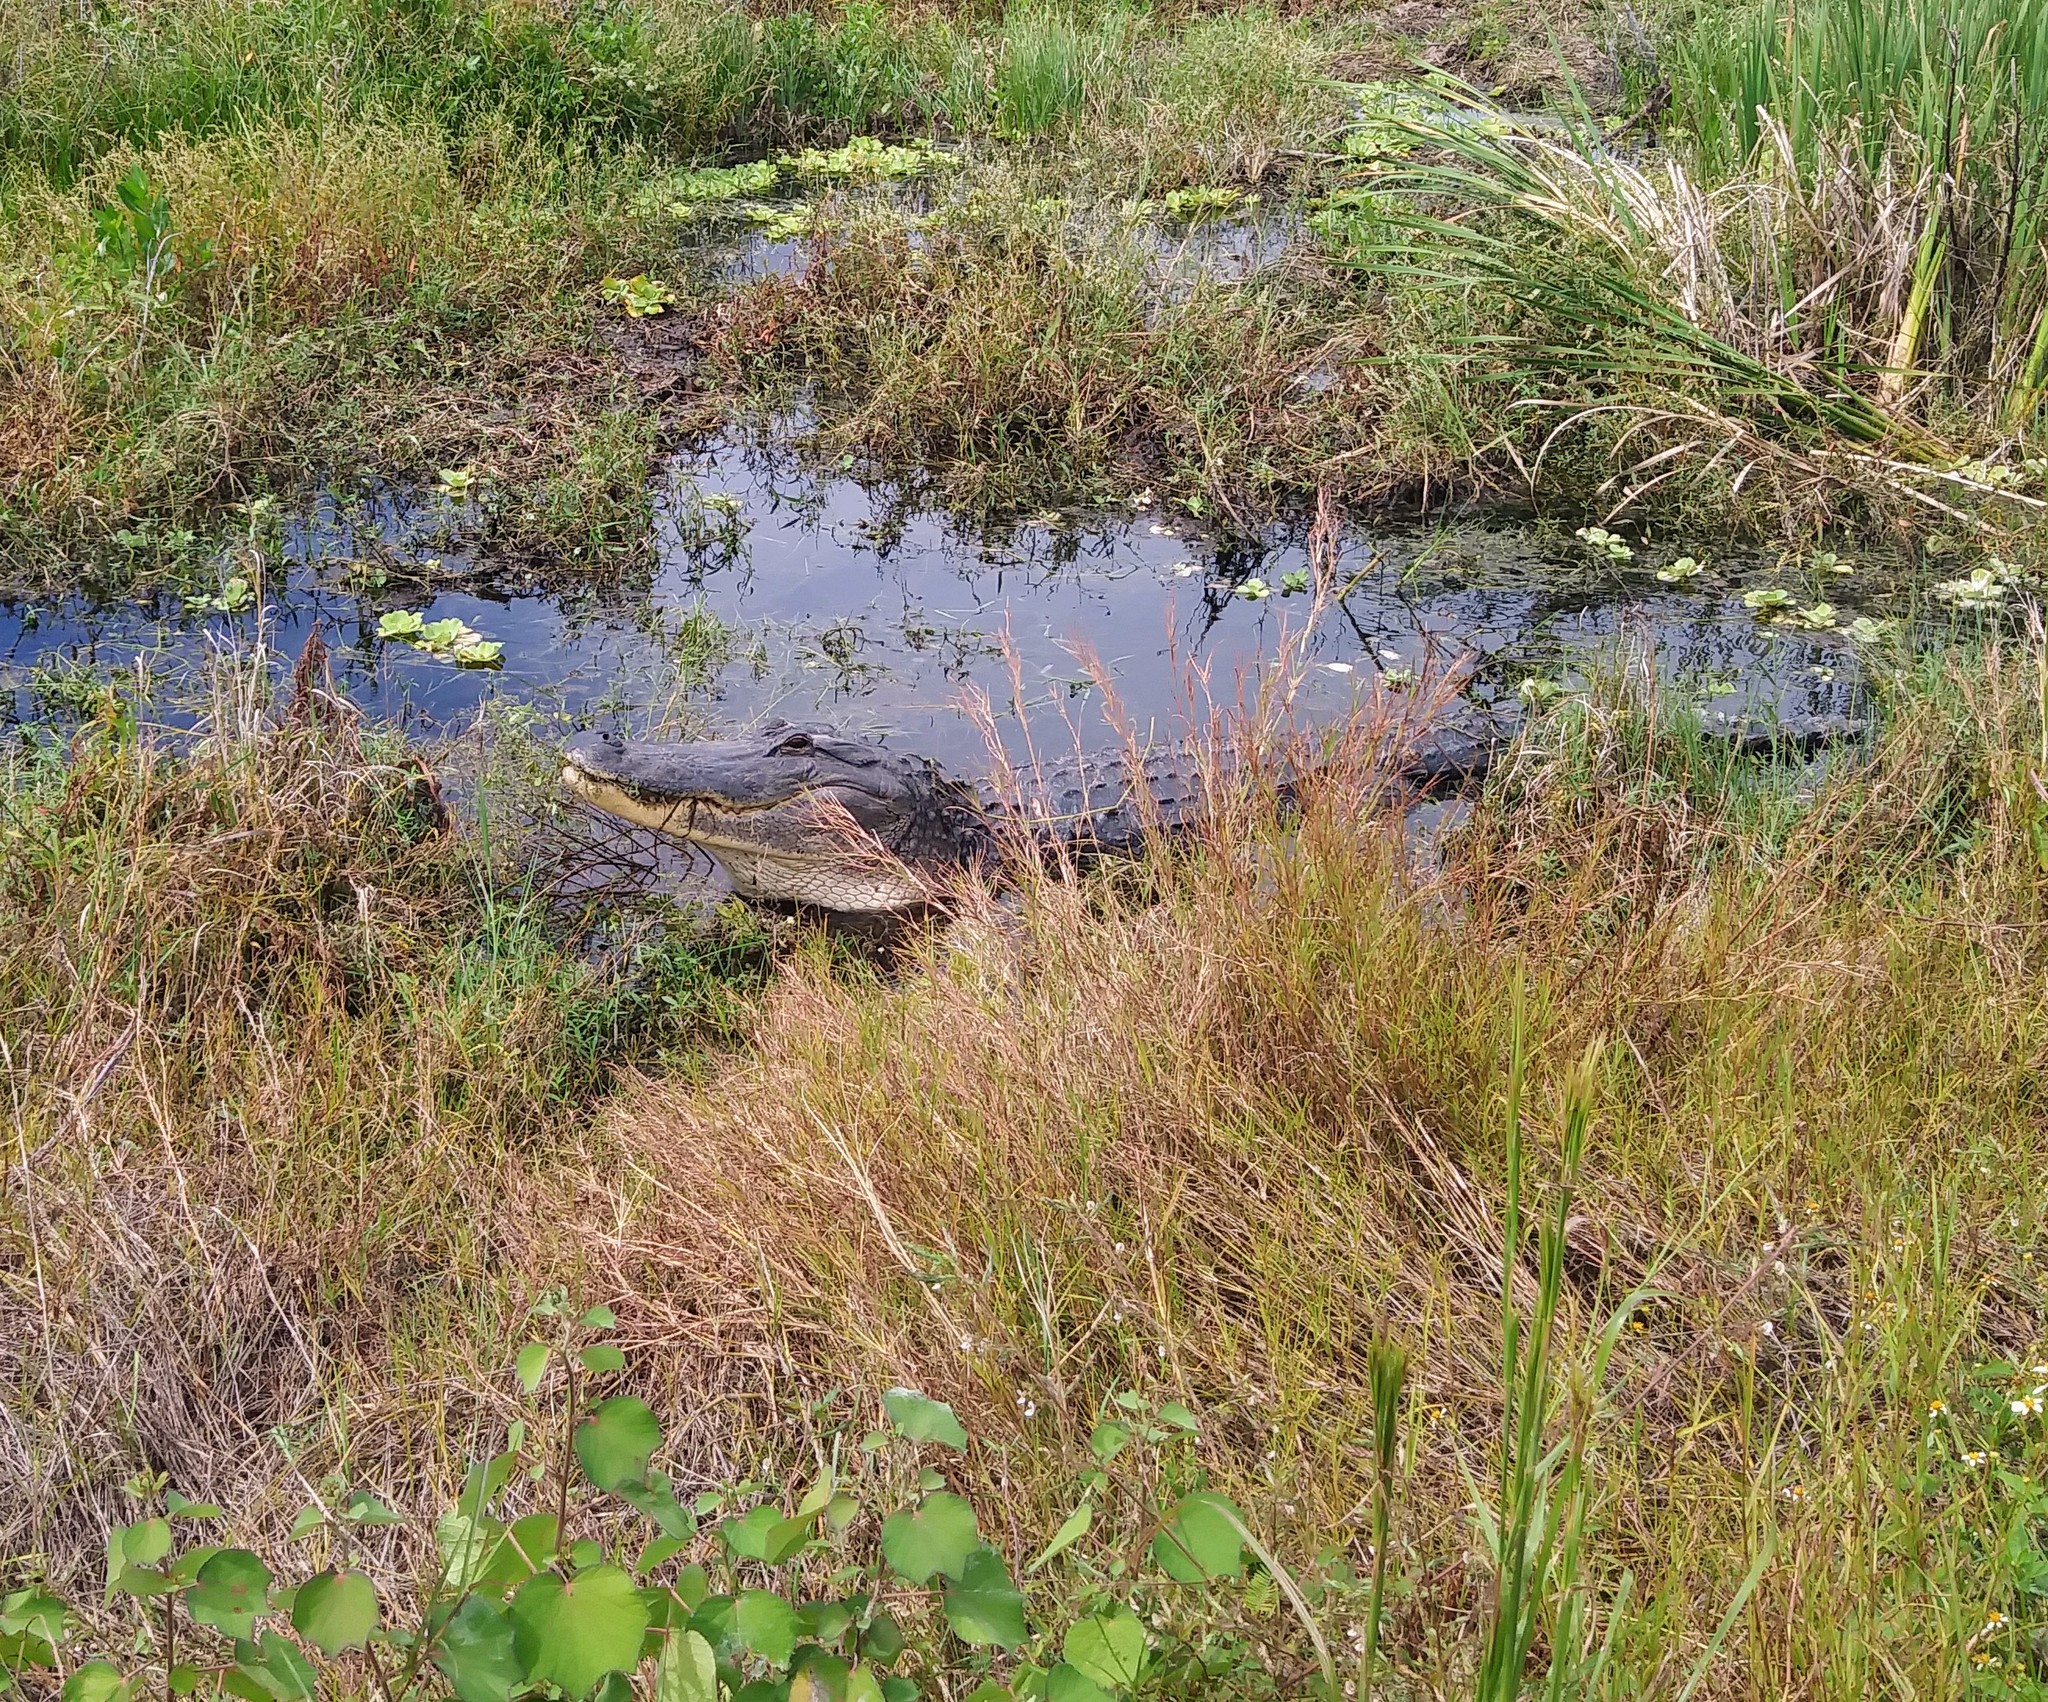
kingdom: Animalia
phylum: Chordata
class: Crocodylia
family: Alligatoridae
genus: Alligator
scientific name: Alligator mississippiensis
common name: American alligator
